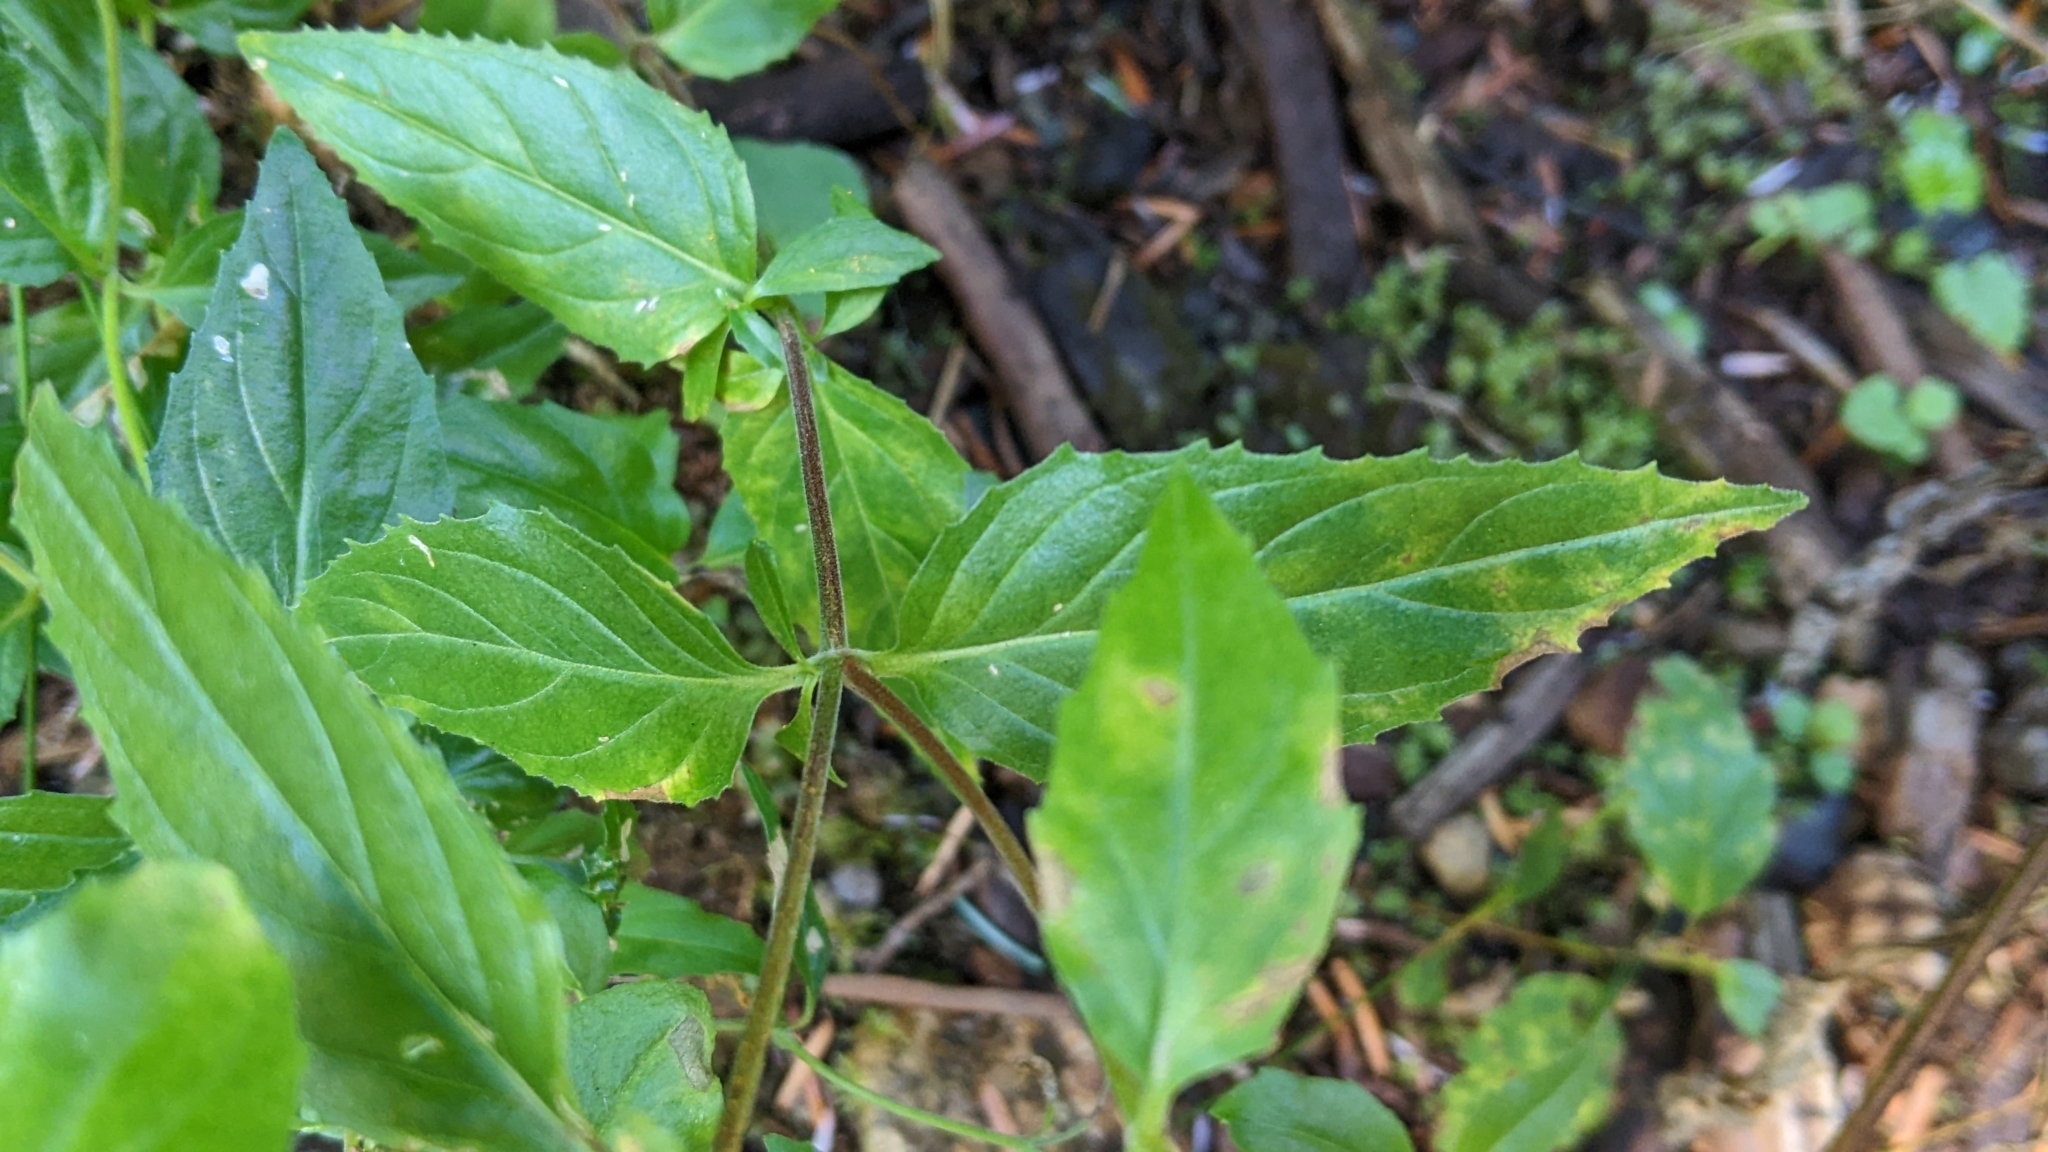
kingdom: Plantae
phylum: Tracheophyta
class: Magnoliopsida
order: Myrtales
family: Onagraceae
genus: Epilobium
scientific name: Epilobium ciliatum
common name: American willowherb
